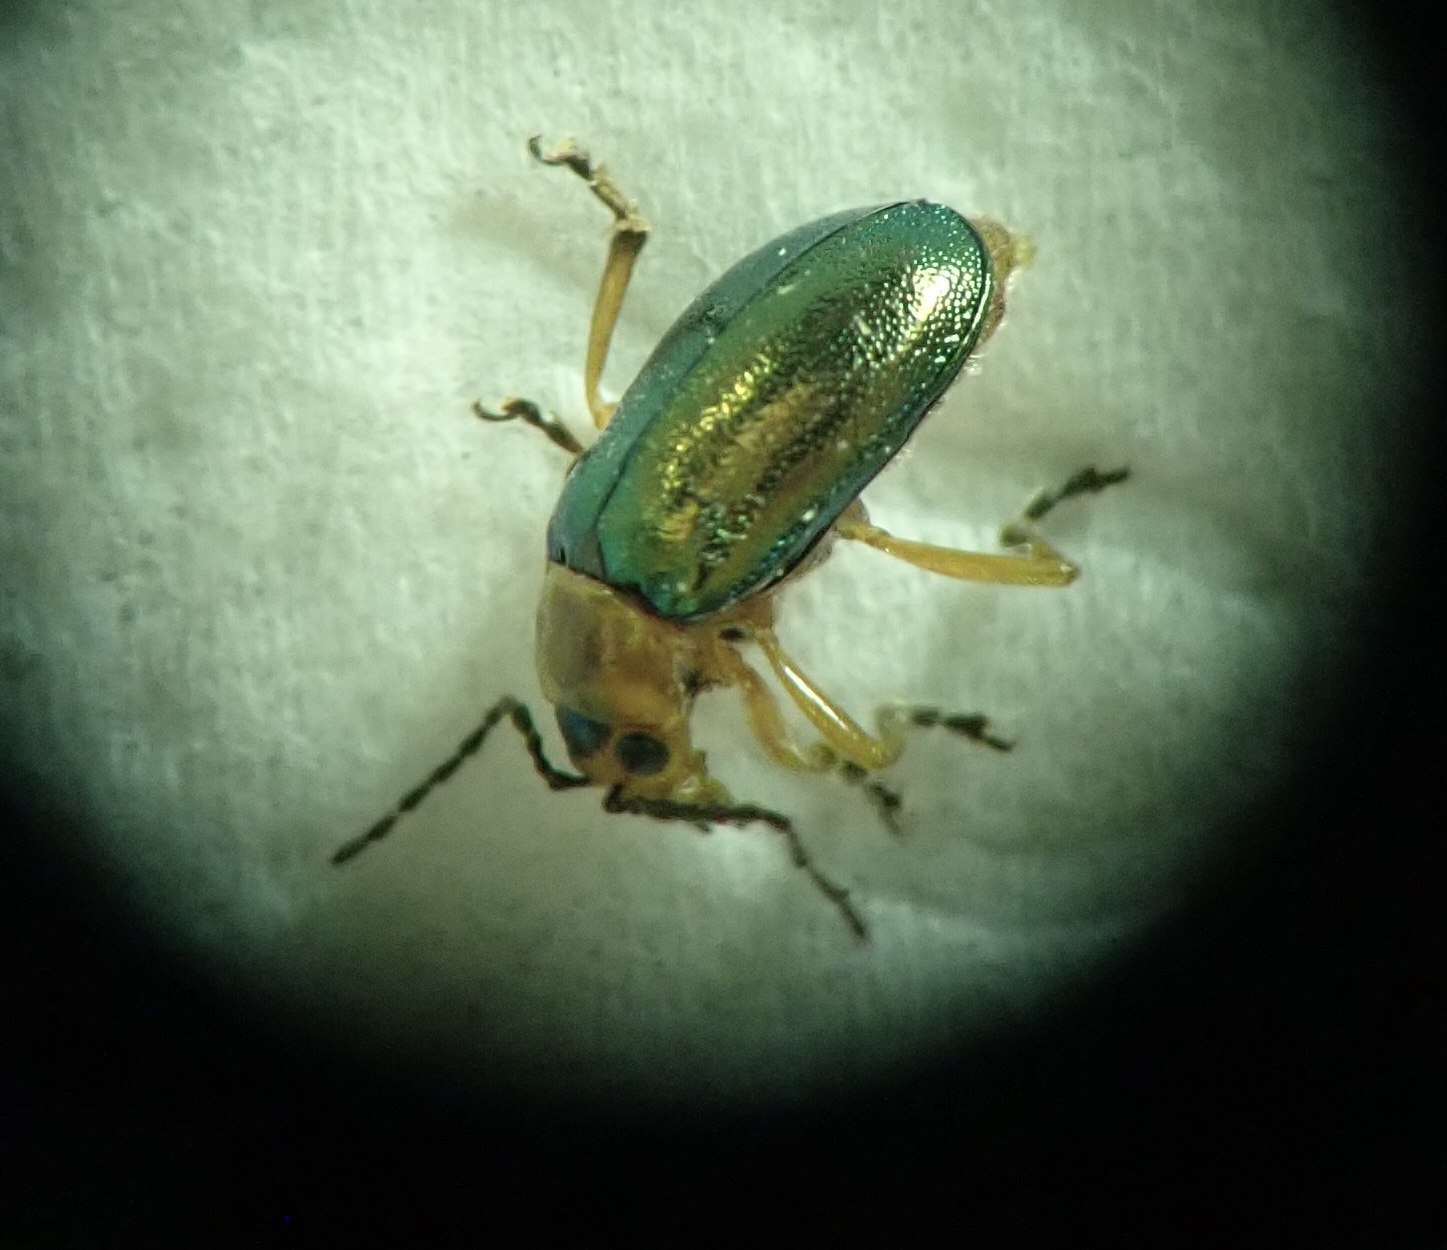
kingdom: Animalia
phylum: Arthropoda
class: Insecta
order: Coleoptera
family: Chrysomelidae
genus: Sermylassa
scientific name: Sermylassa halensis
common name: Leaf beetle
